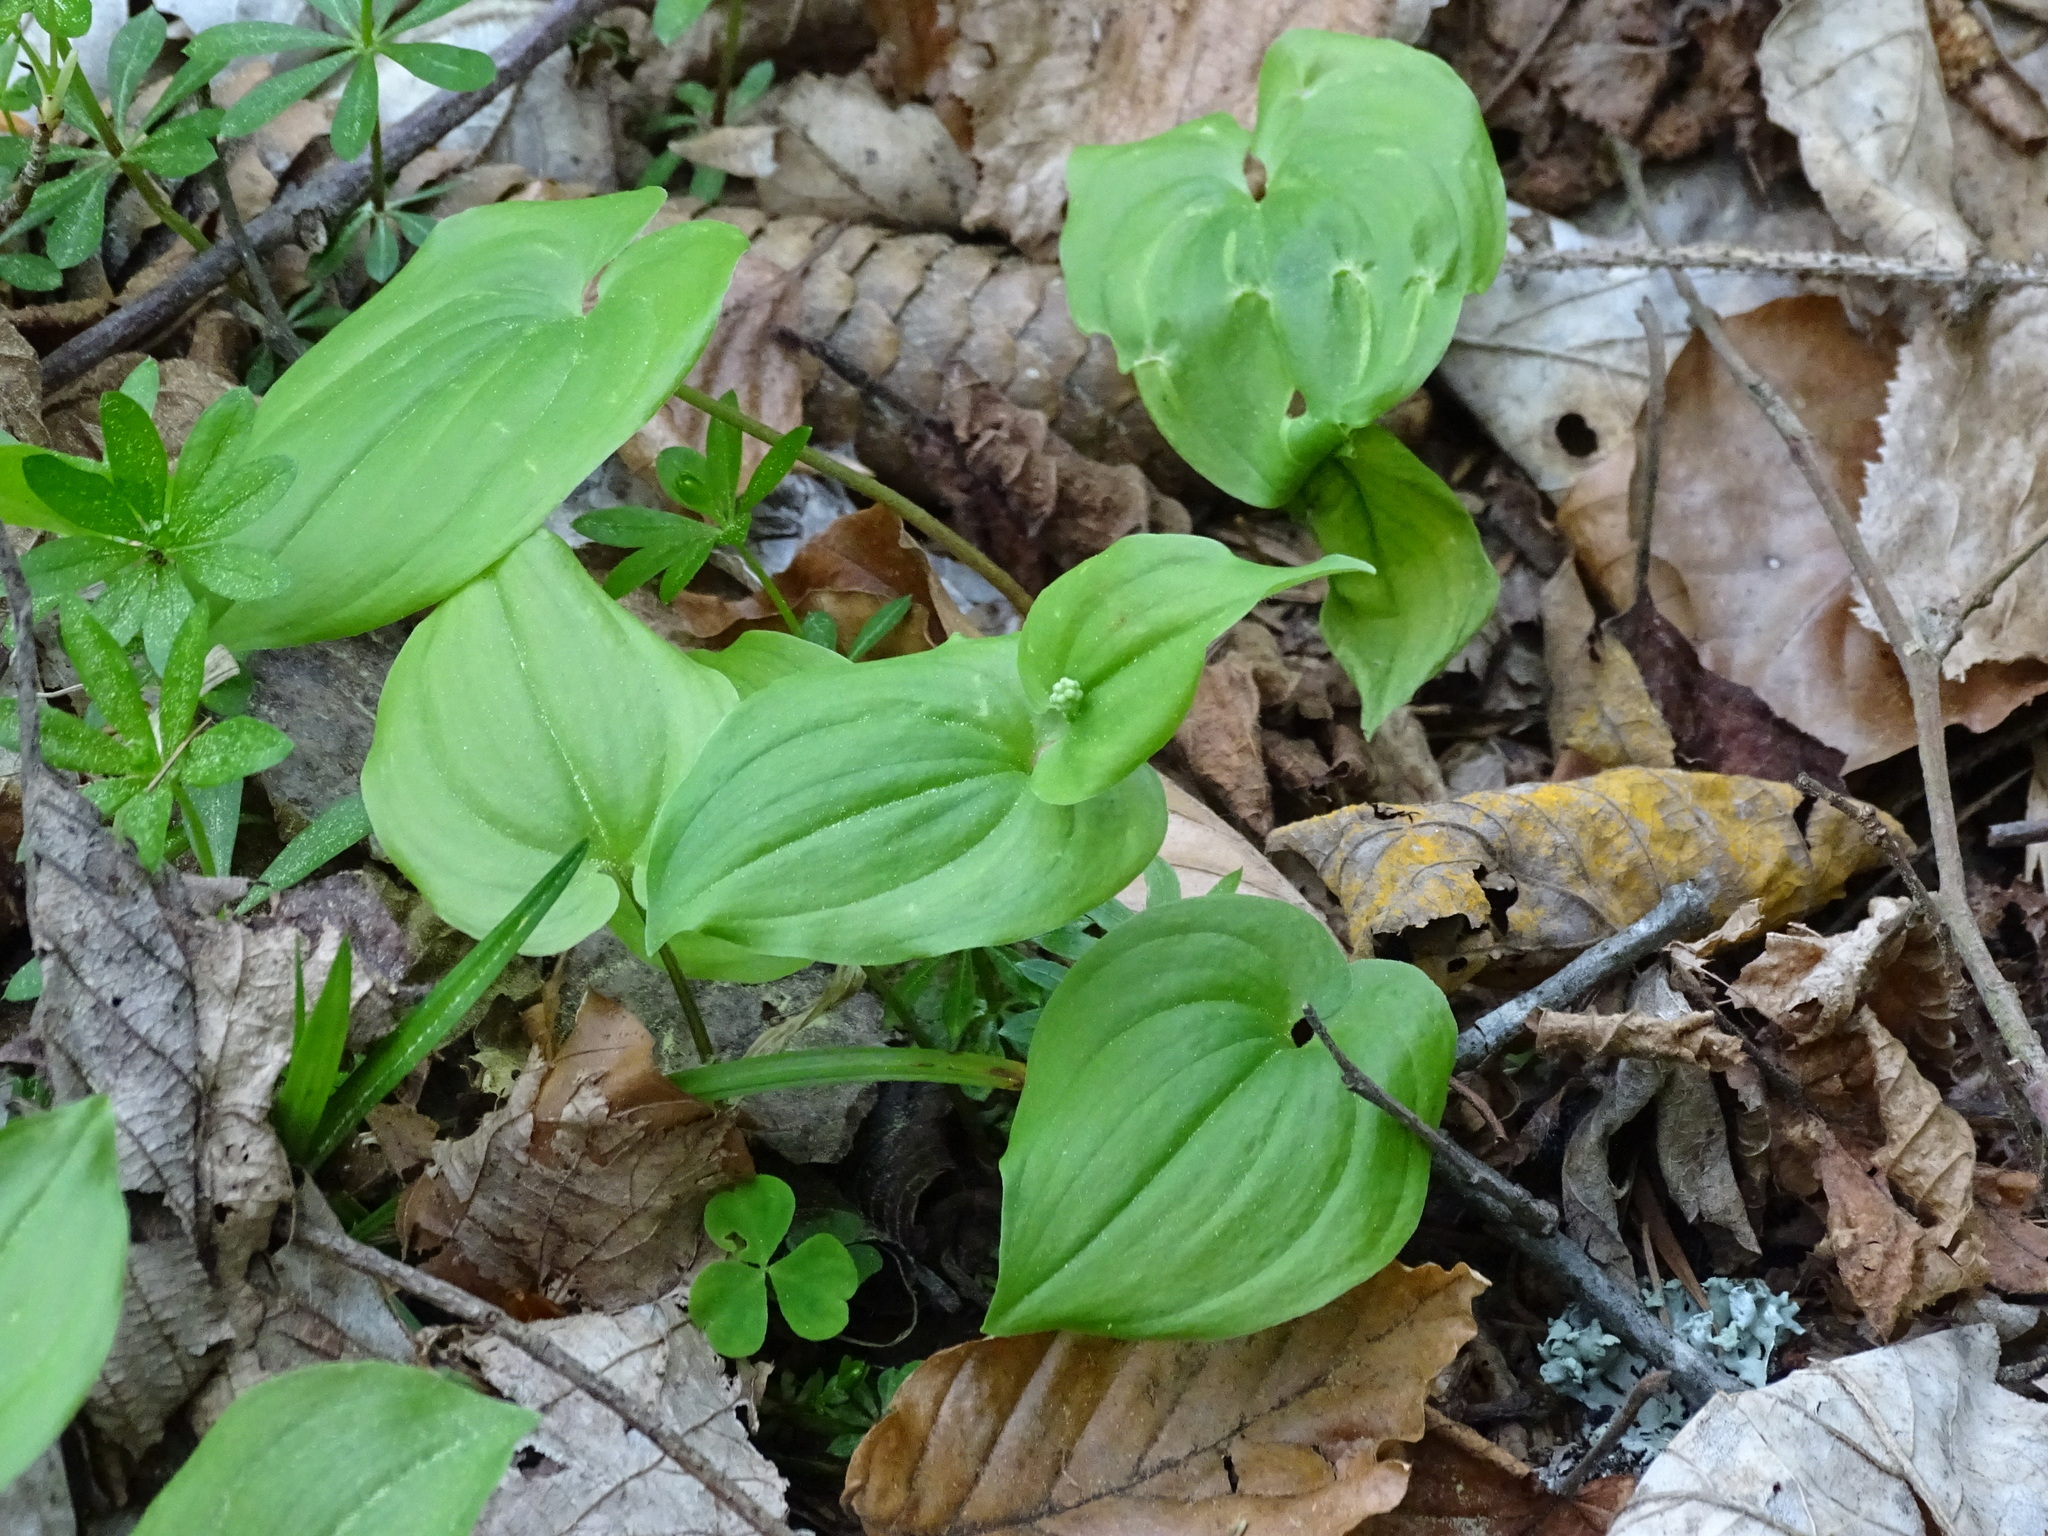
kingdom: Plantae
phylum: Tracheophyta
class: Liliopsida
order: Asparagales
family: Asparagaceae
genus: Maianthemum
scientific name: Maianthemum bifolium
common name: May lily
